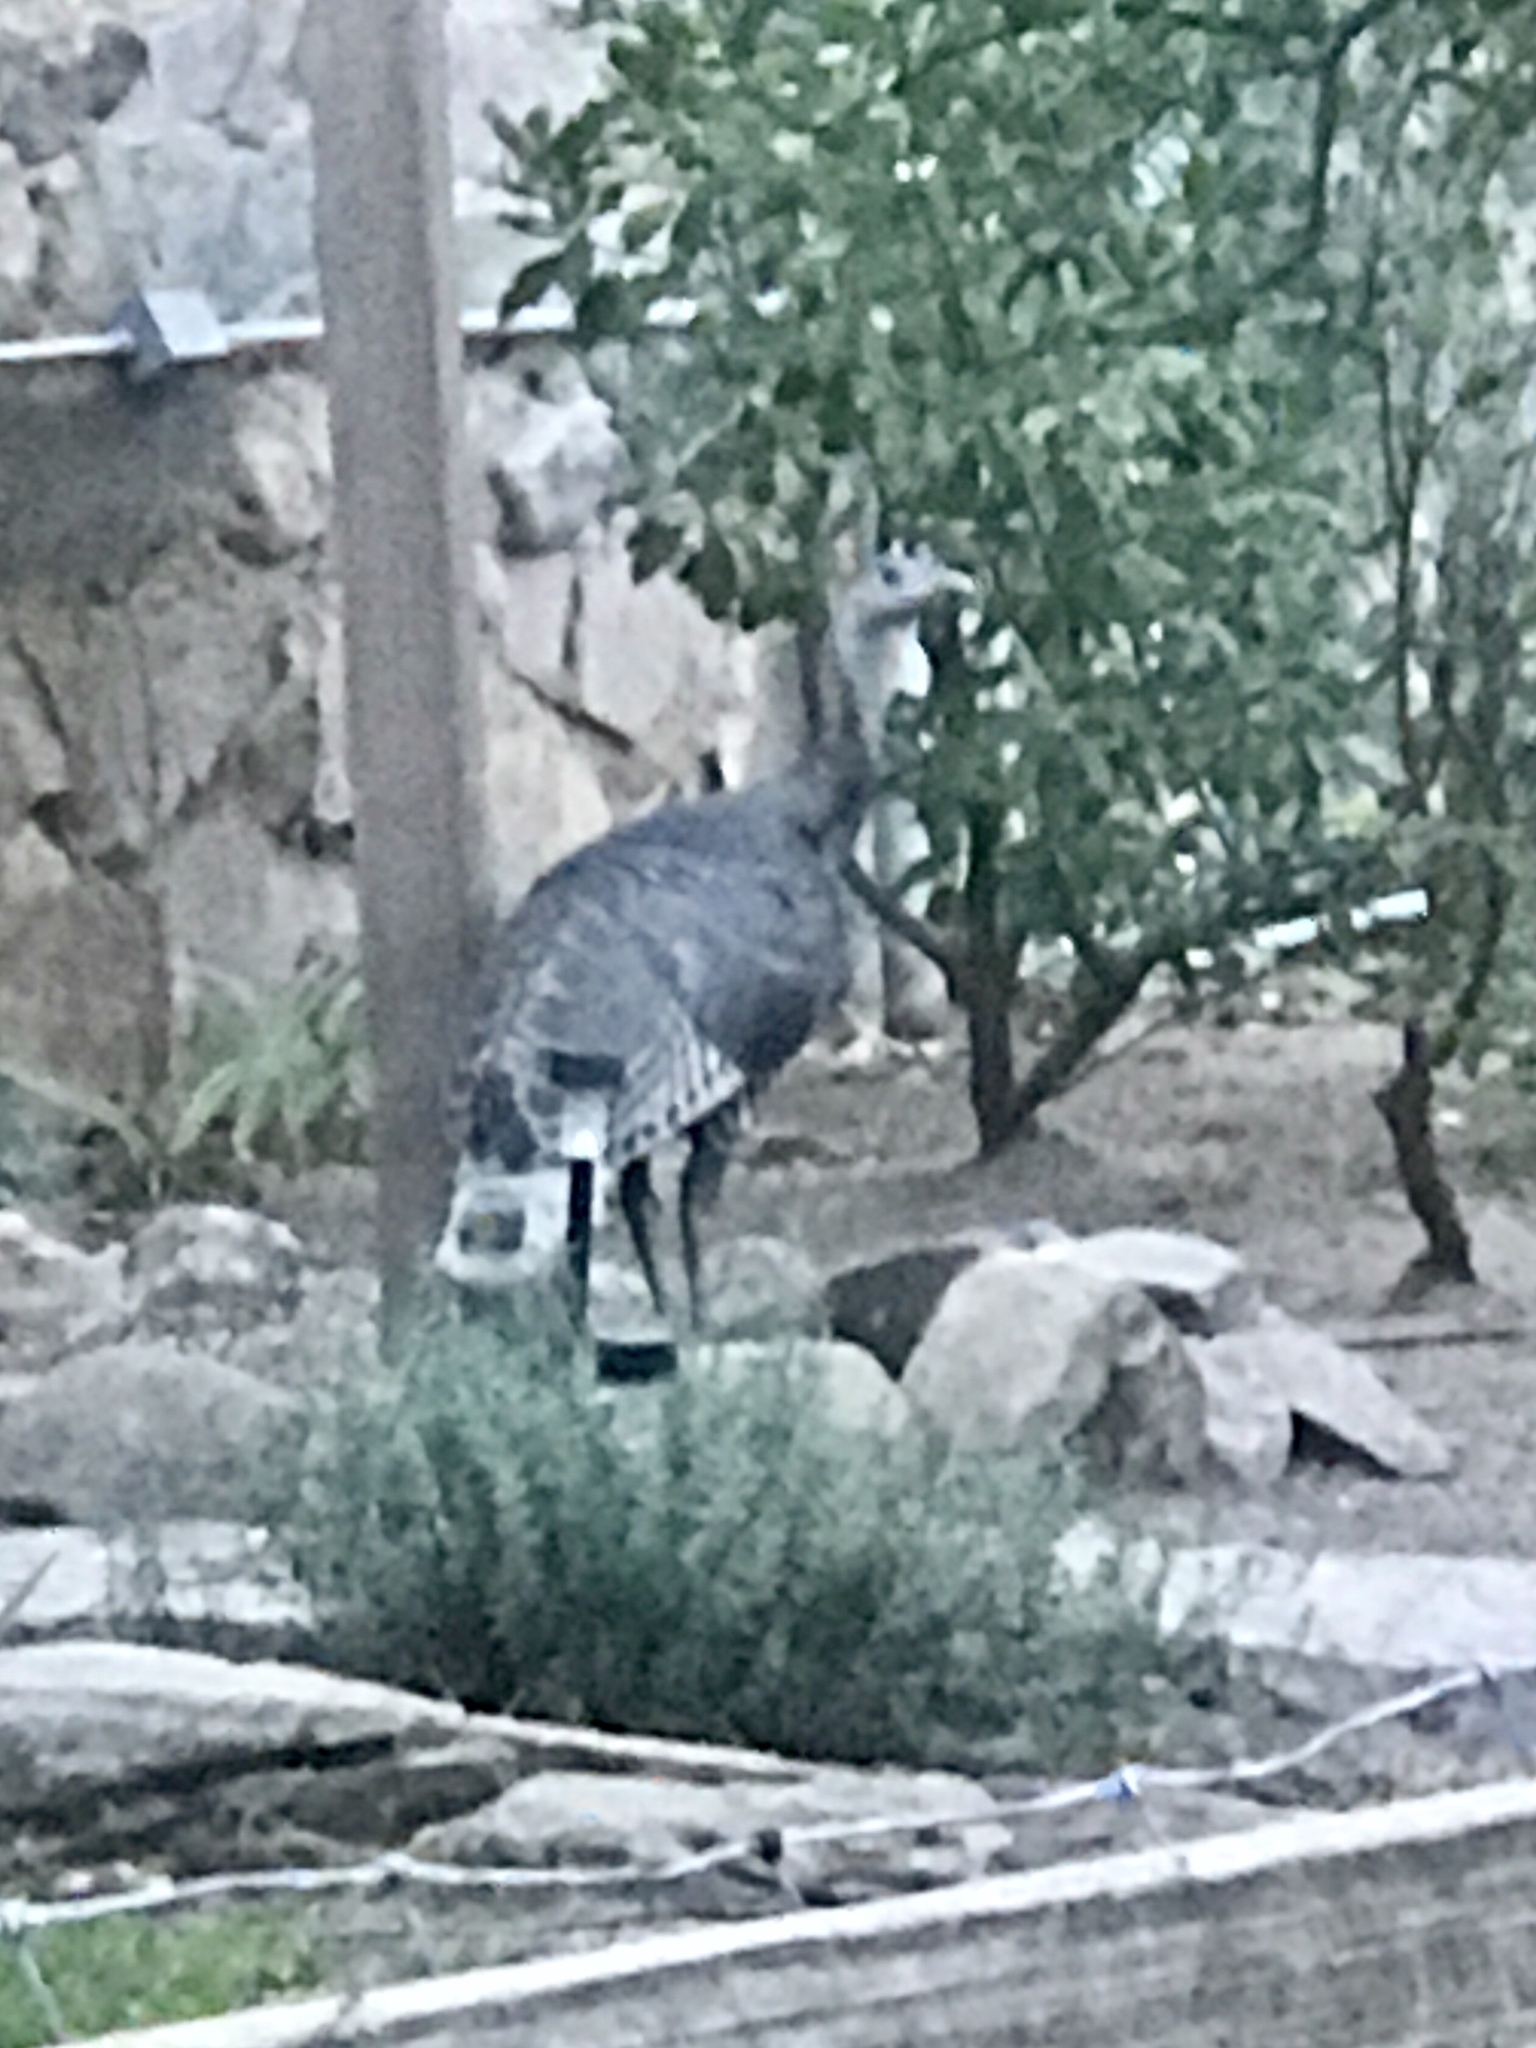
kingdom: Animalia
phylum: Chordata
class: Aves
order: Galliformes
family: Phasianidae
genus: Meleagris
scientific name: Meleagris gallopavo
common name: Wild turkey
